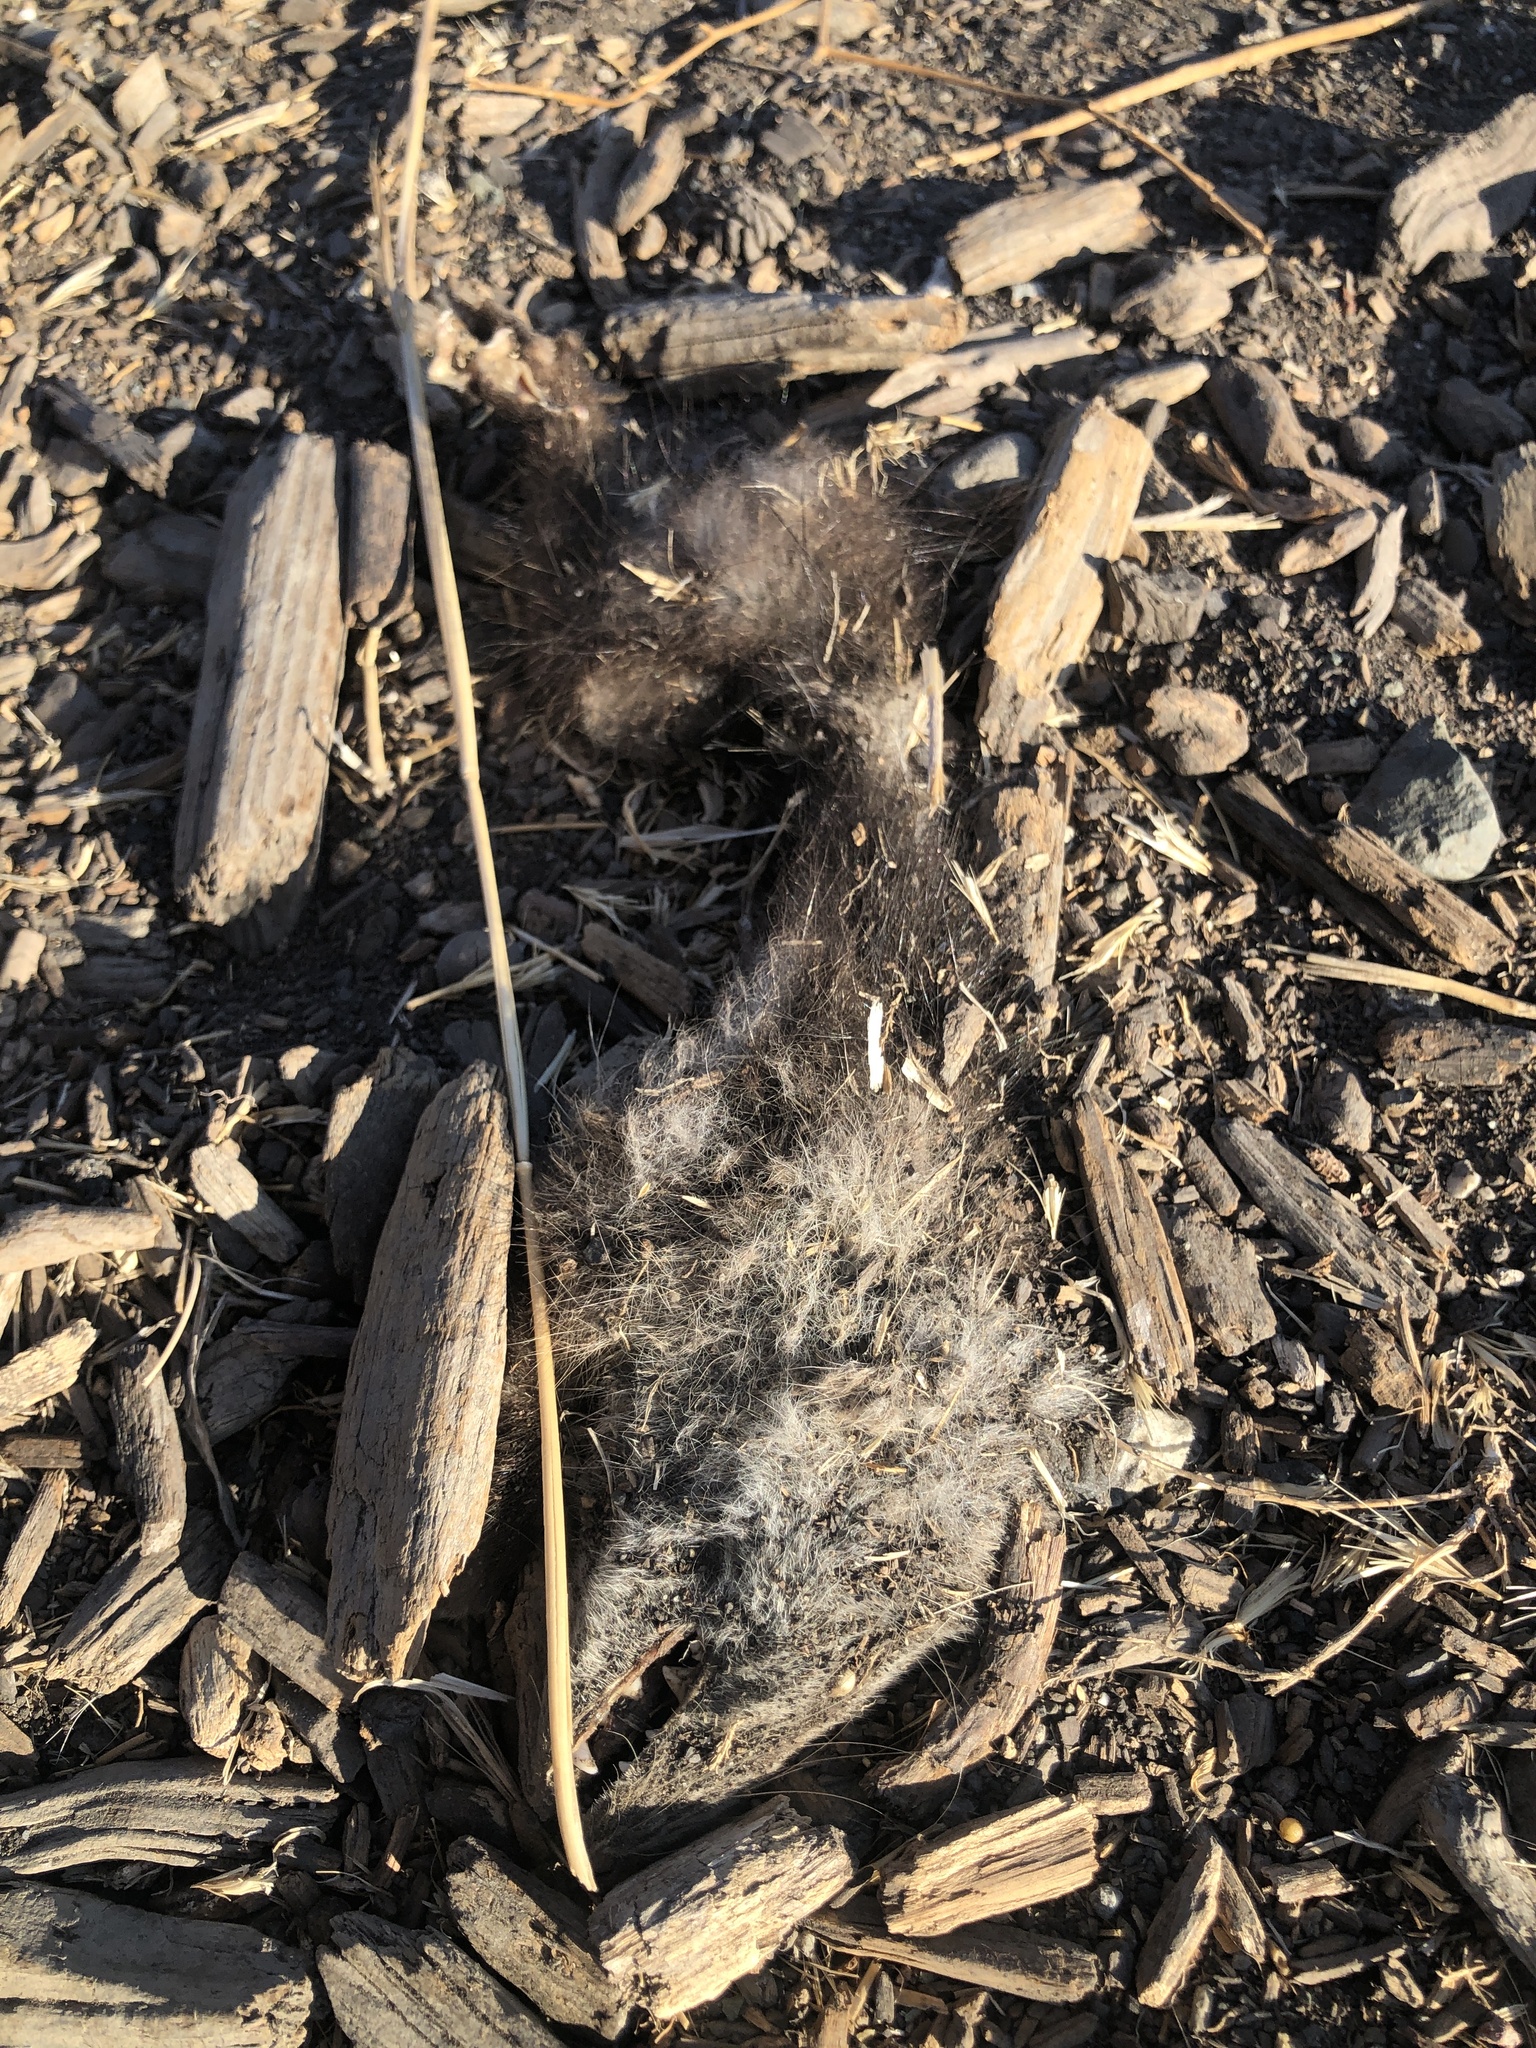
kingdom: Animalia
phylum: Chordata
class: Mammalia
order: Didelphimorphia
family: Didelphidae
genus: Didelphis
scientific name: Didelphis virginiana
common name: Virginia opossum
